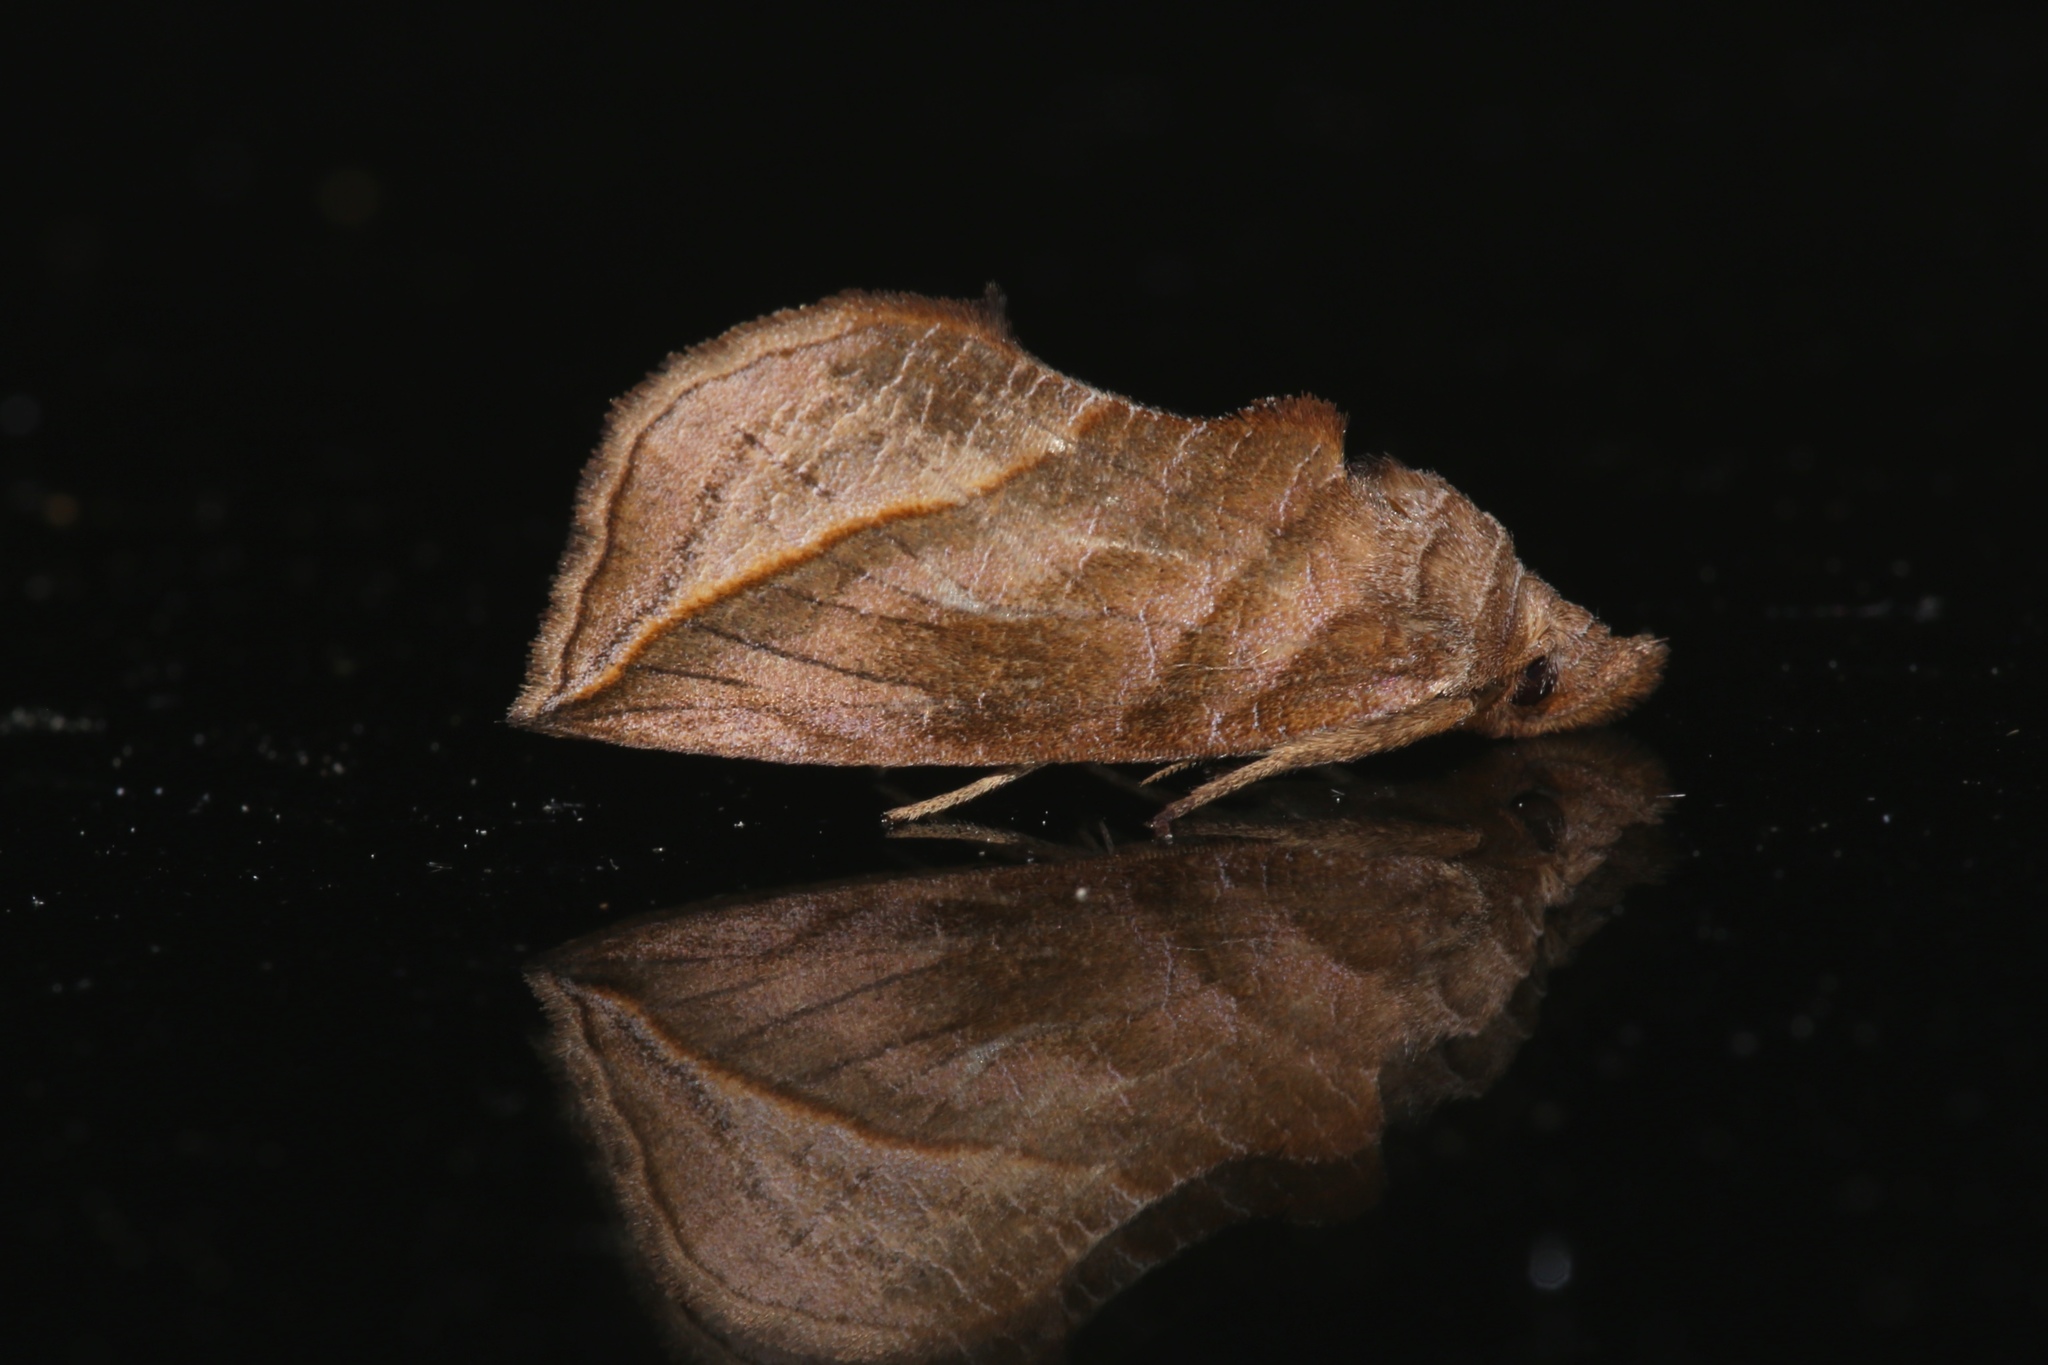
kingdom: Animalia
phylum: Arthropoda
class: Insecta
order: Lepidoptera
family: Erebidae
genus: Calyptra
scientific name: Calyptra canadensis
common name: Canadian owlet
